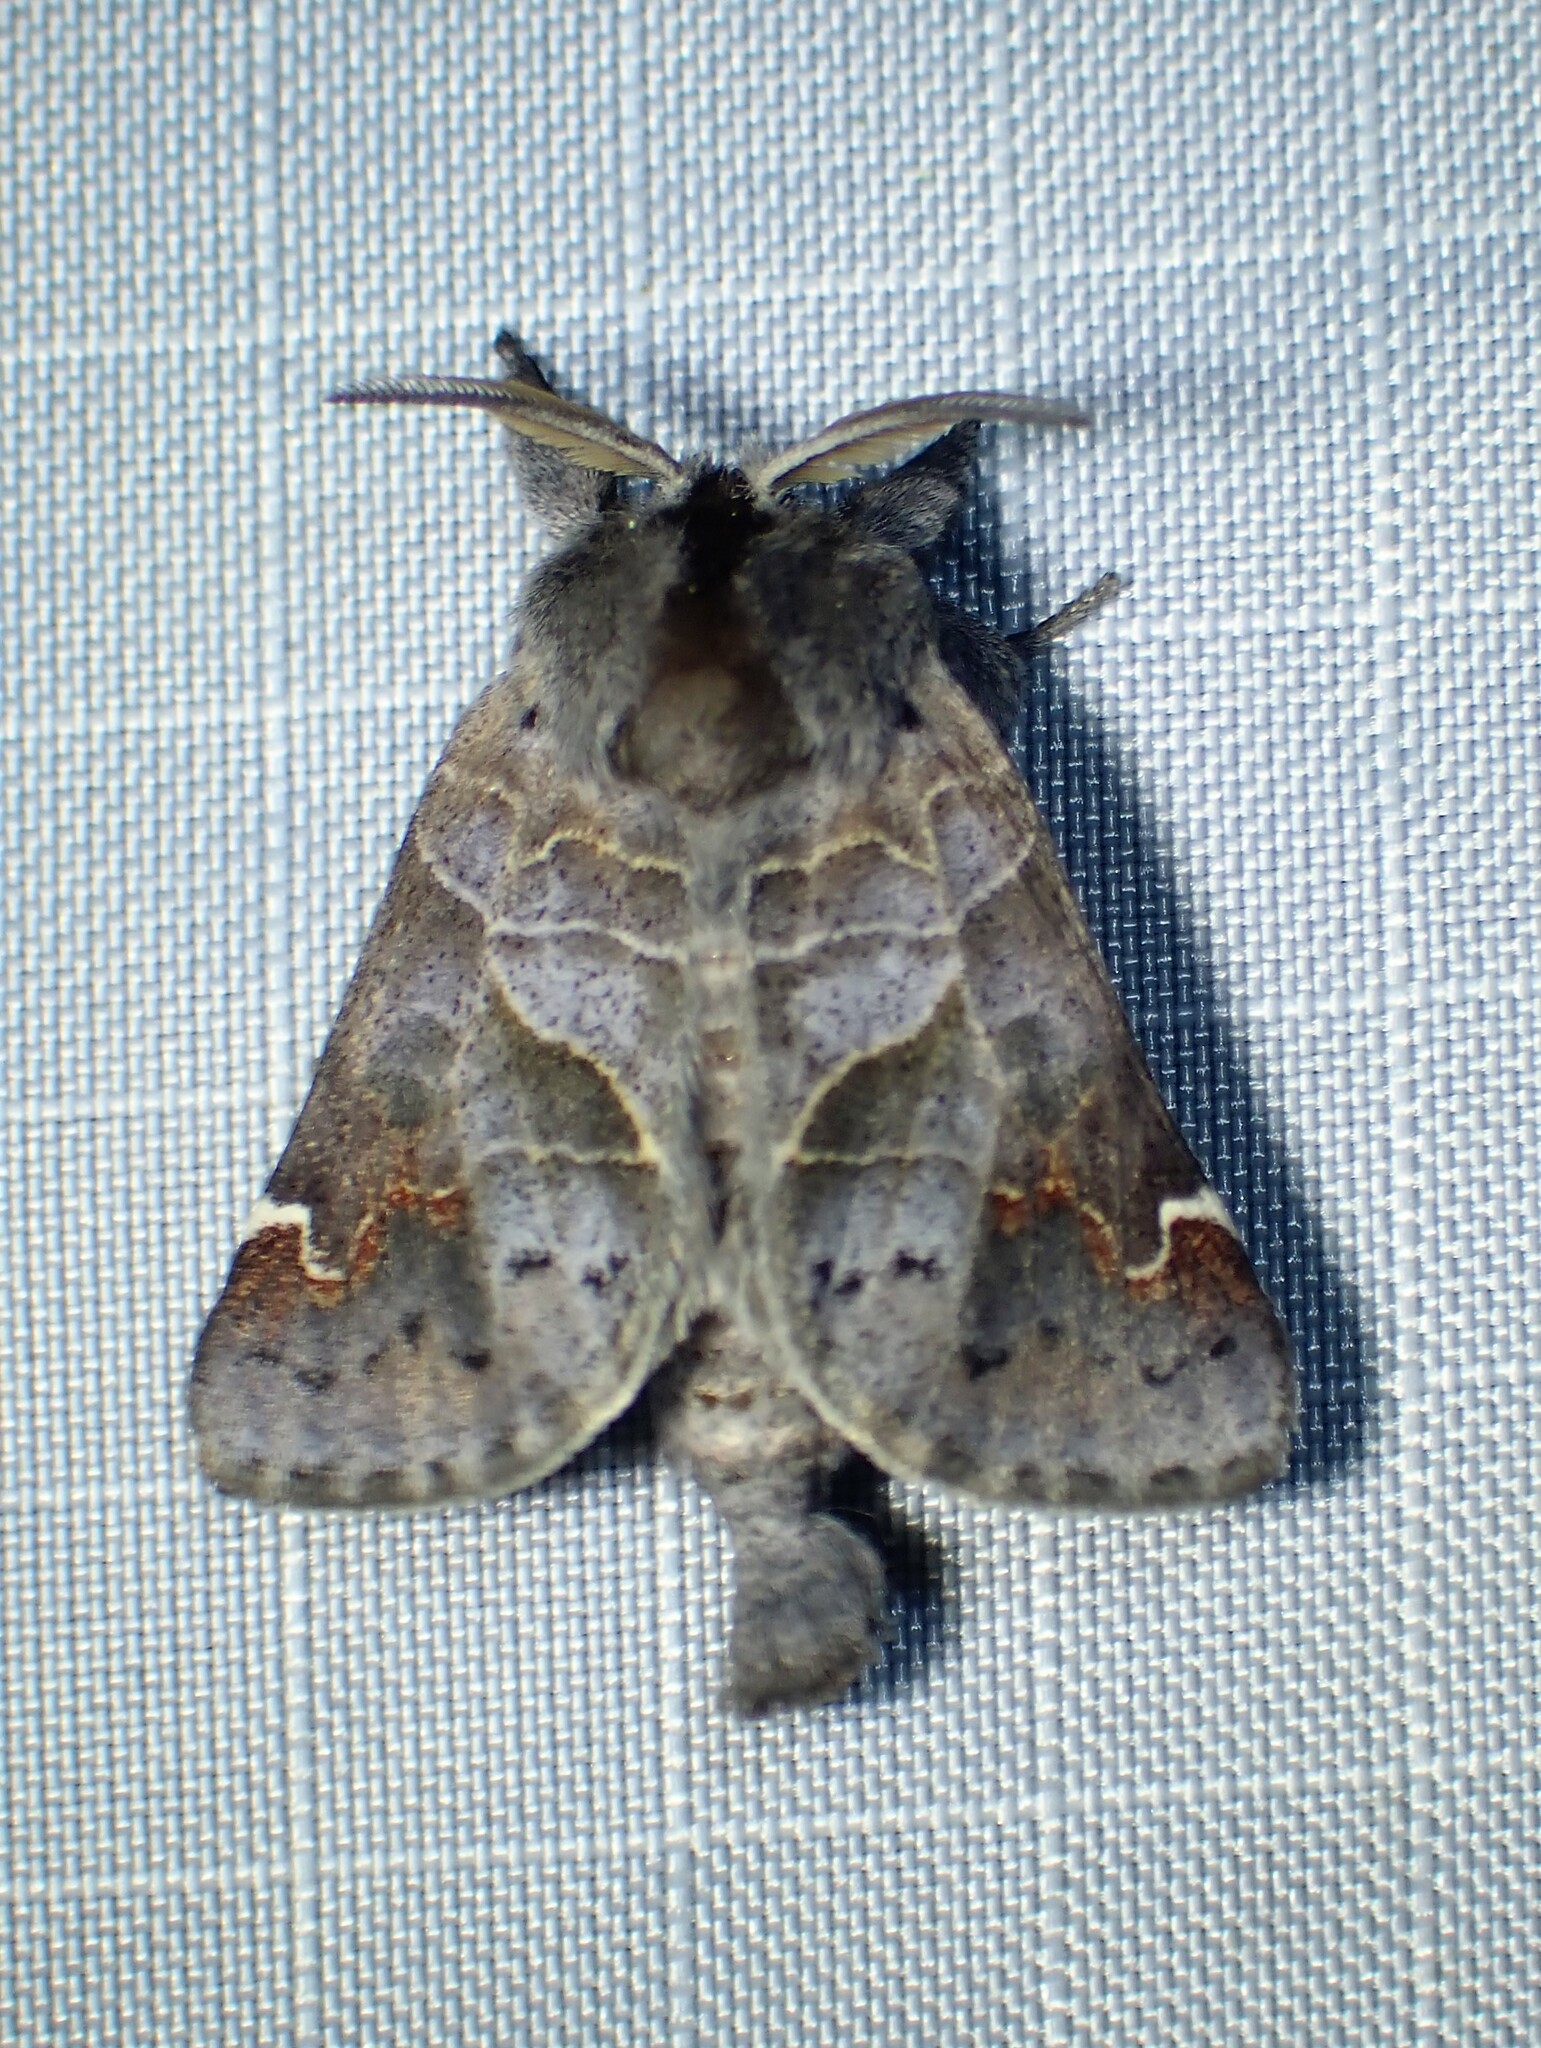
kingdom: Animalia
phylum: Arthropoda
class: Insecta
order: Lepidoptera
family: Notodontidae
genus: Clostera
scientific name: Clostera apicalis
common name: Apical prominent
